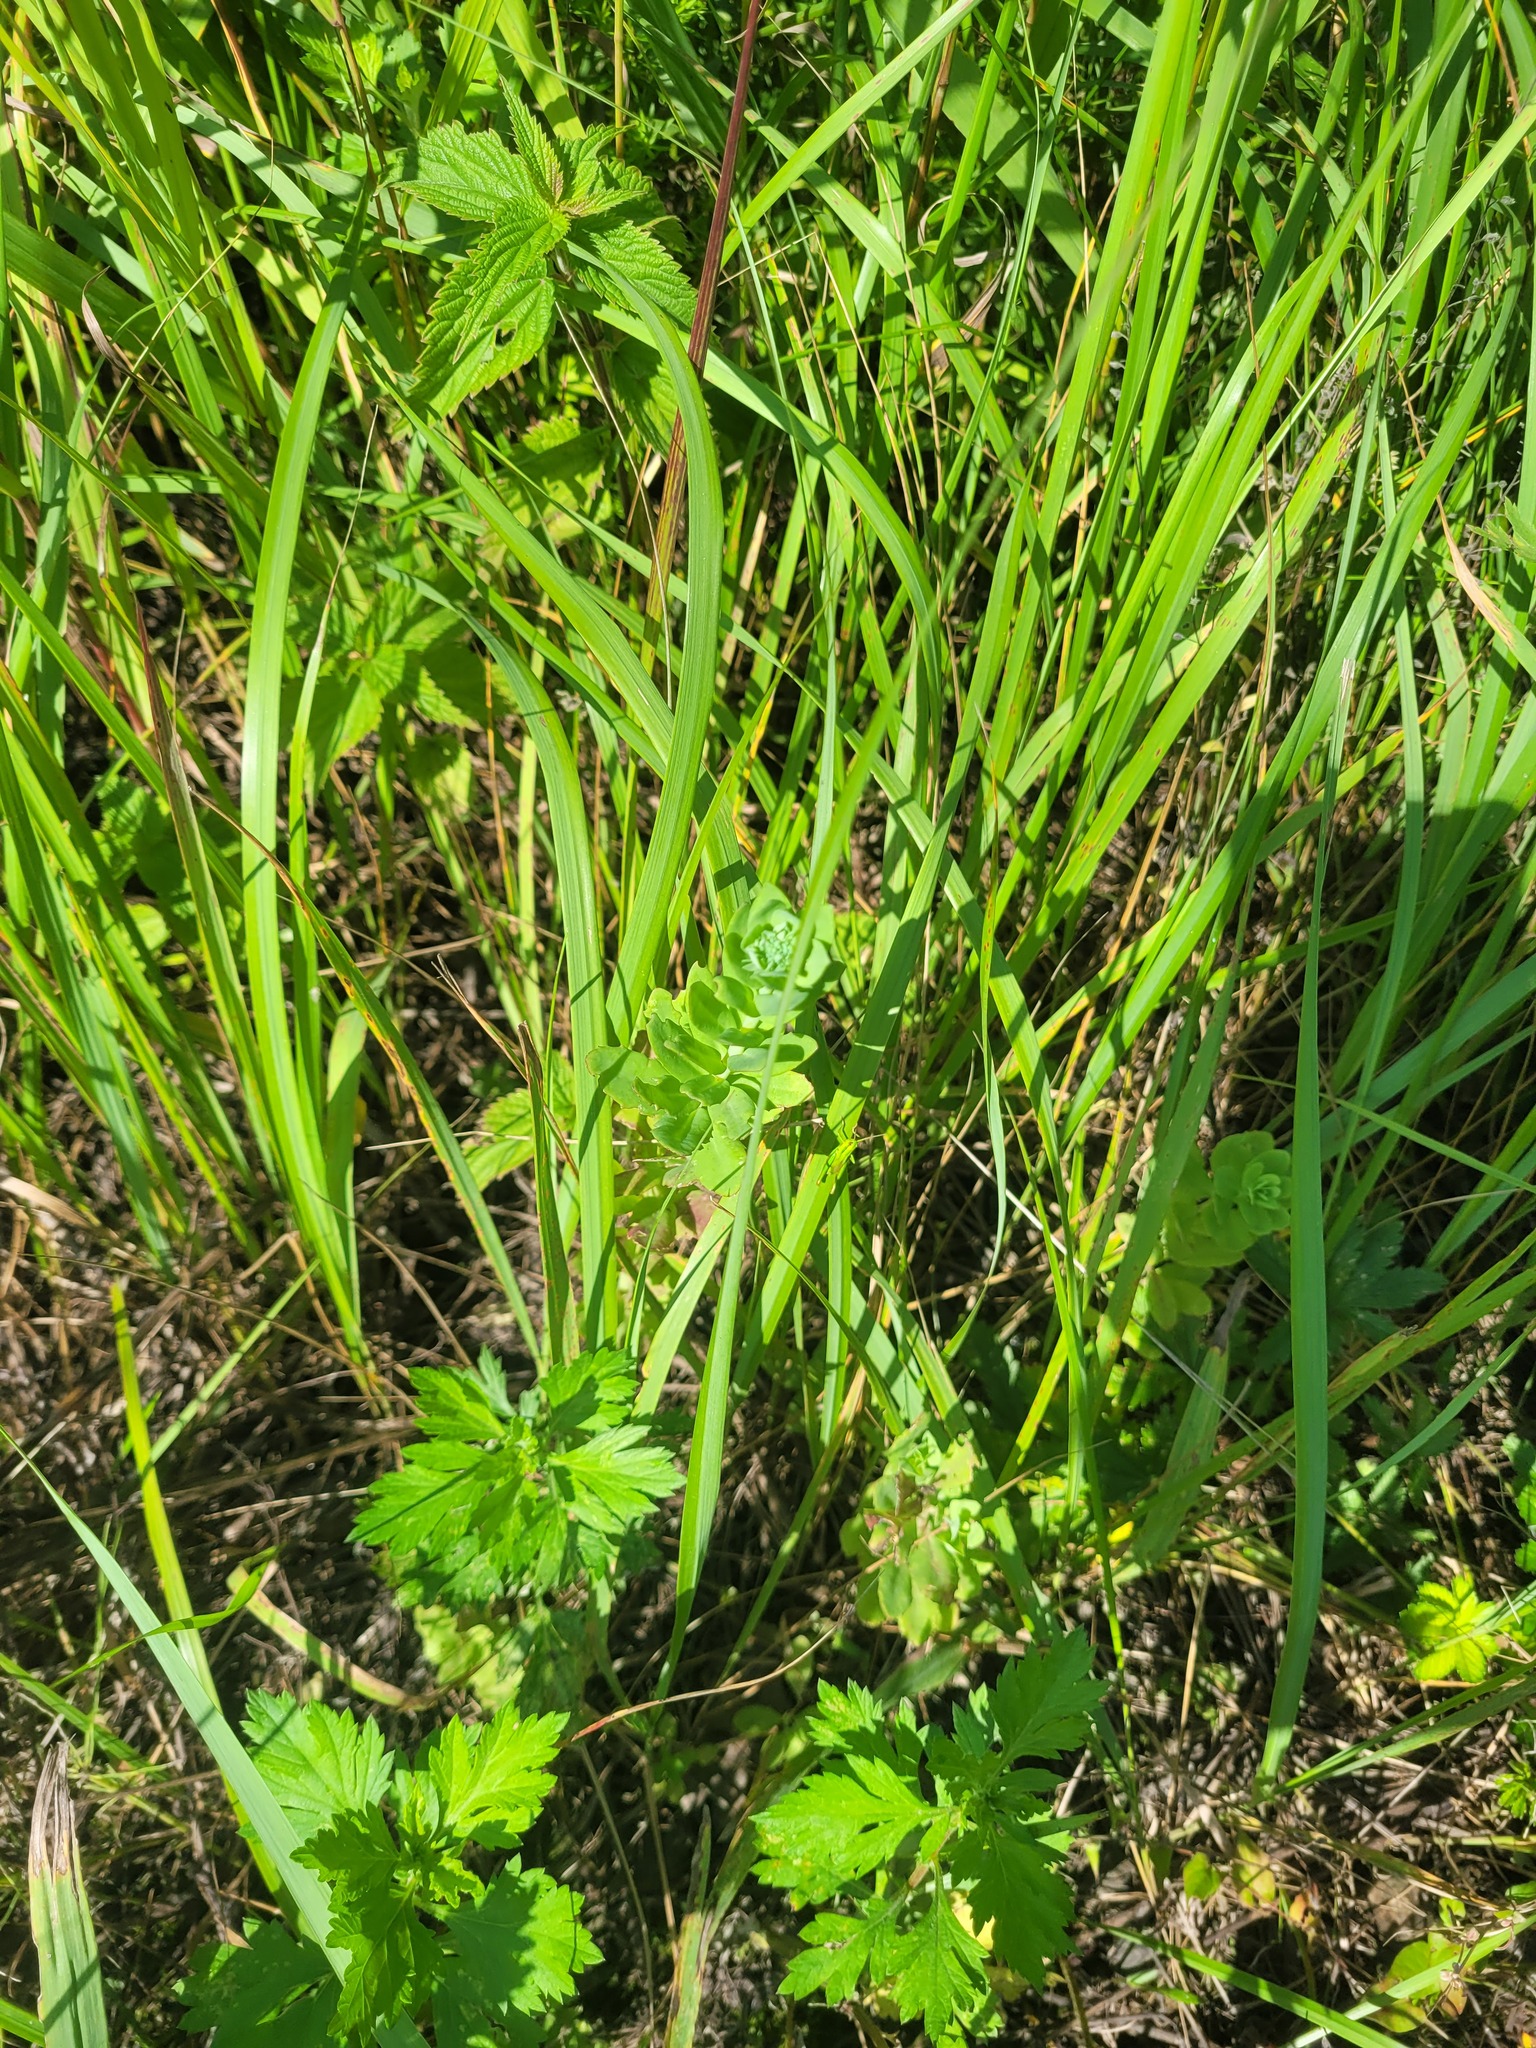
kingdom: Plantae
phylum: Tracheophyta
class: Magnoliopsida
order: Saxifragales
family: Crassulaceae
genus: Hylotelephium
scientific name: Hylotelephium telephium
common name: Live-forever
